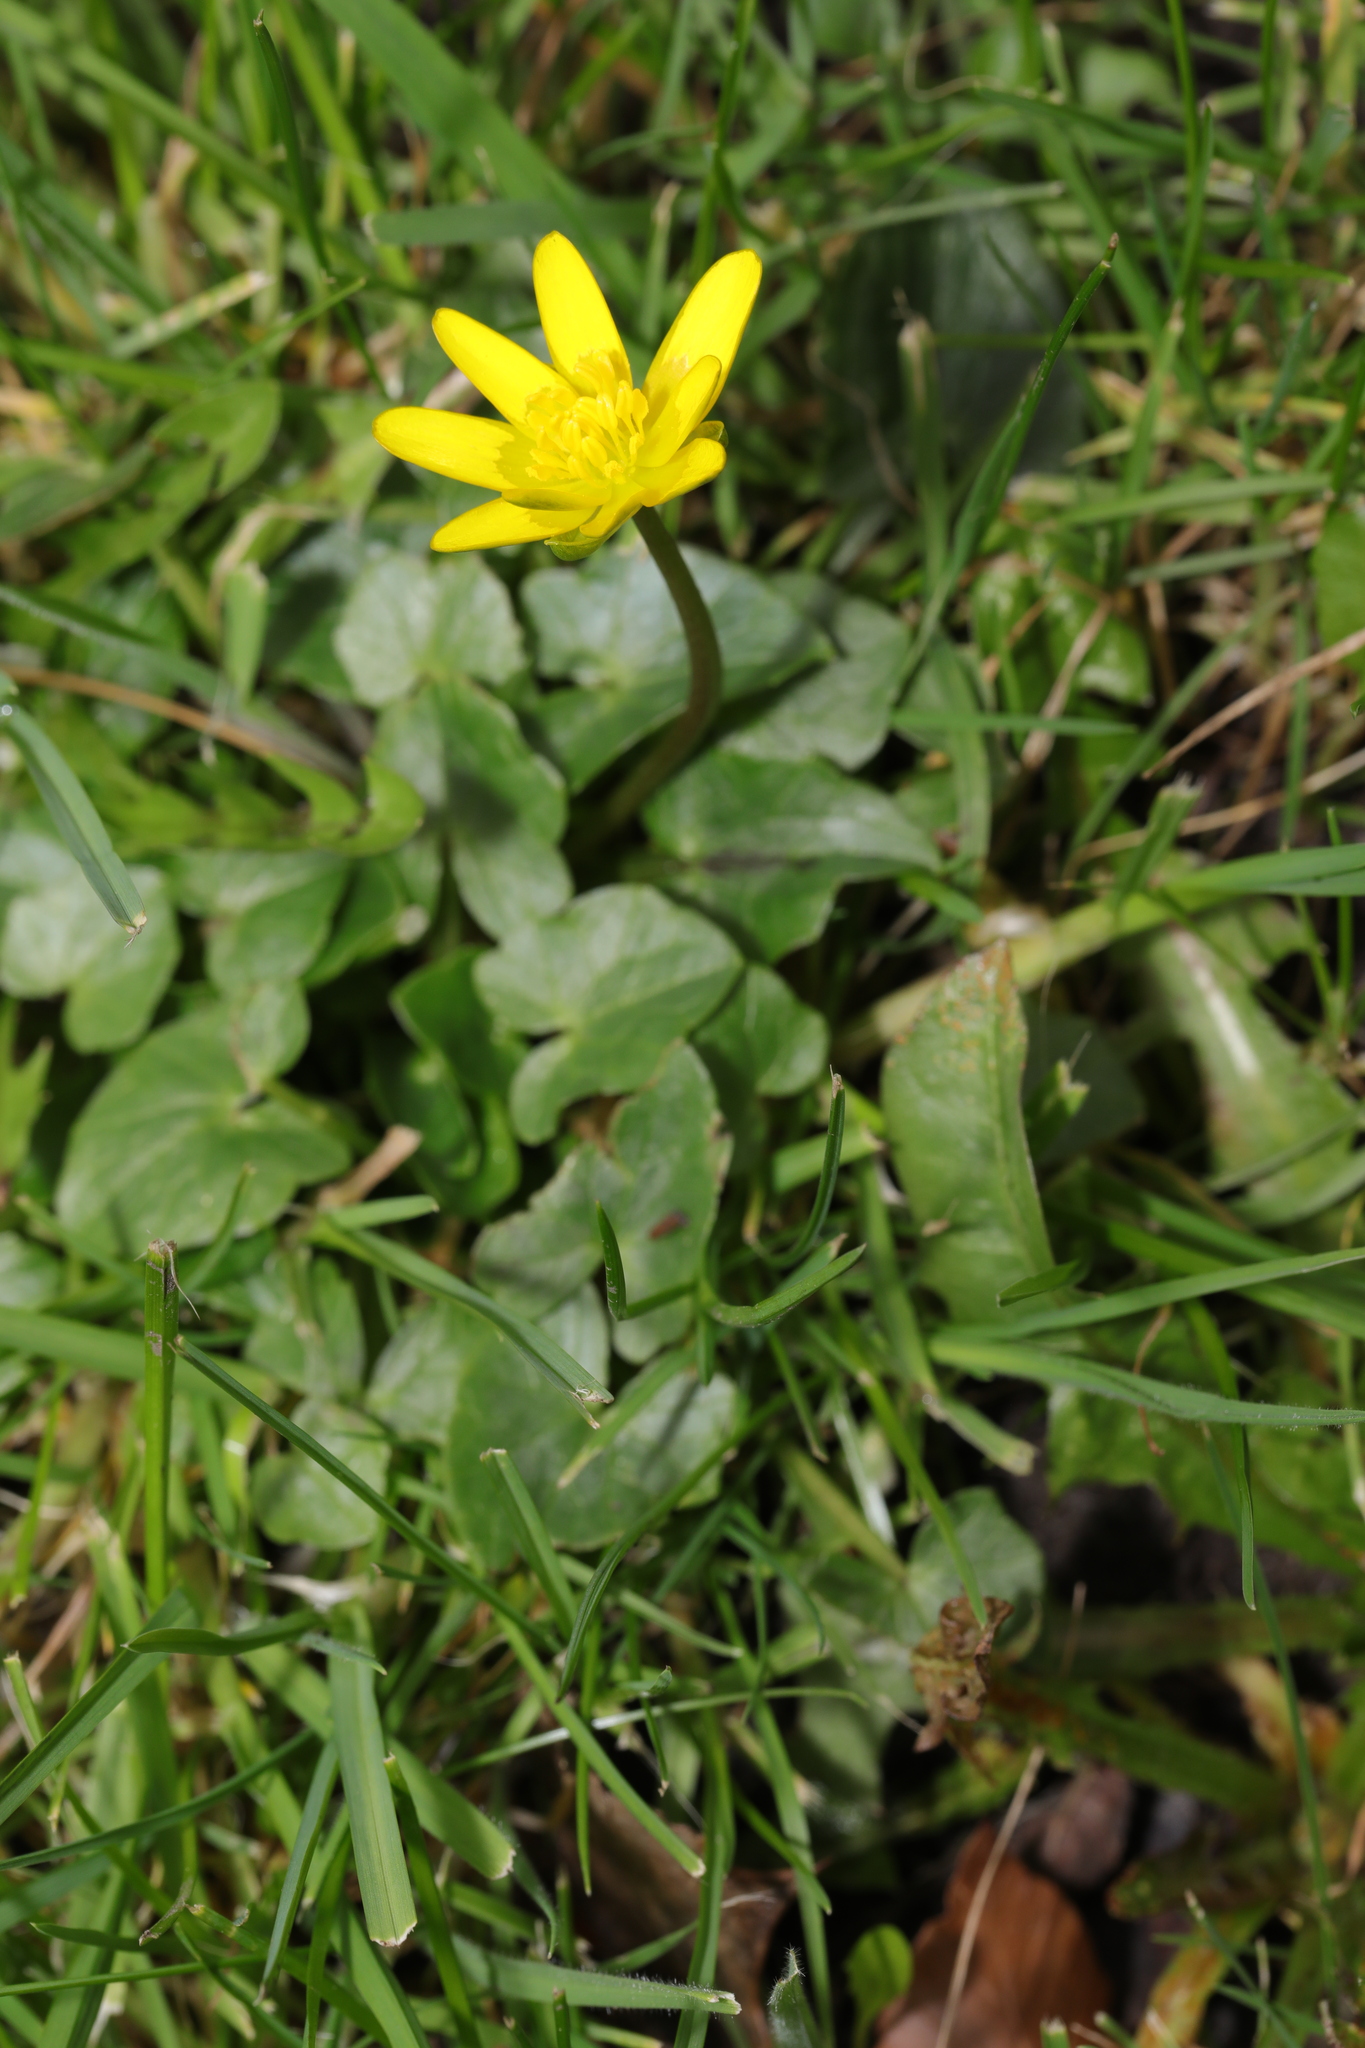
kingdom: Plantae
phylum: Tracheophyta
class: Magnoliopsida
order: Ranunculales
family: Ranunculaceae
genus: Ficaria
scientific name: Ficaria verna
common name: Lesser celandine
